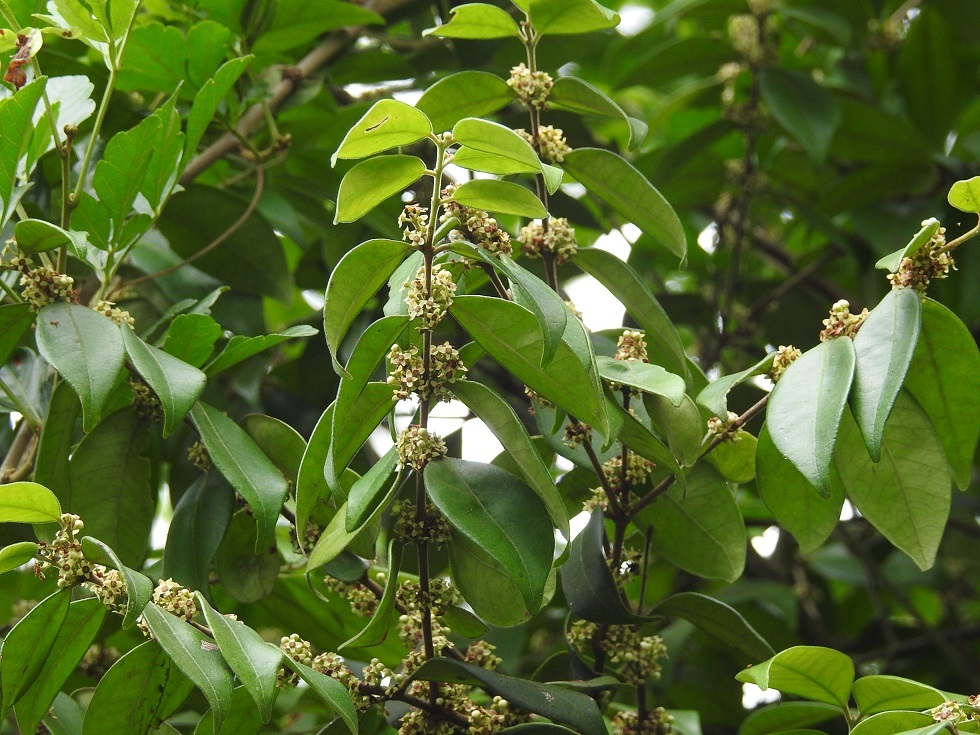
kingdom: Plantae
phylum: Tracheophyta
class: Magnoliopsida
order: Myrtales
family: Myrtaceae
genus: Eugenia
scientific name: Eugenia capuli
